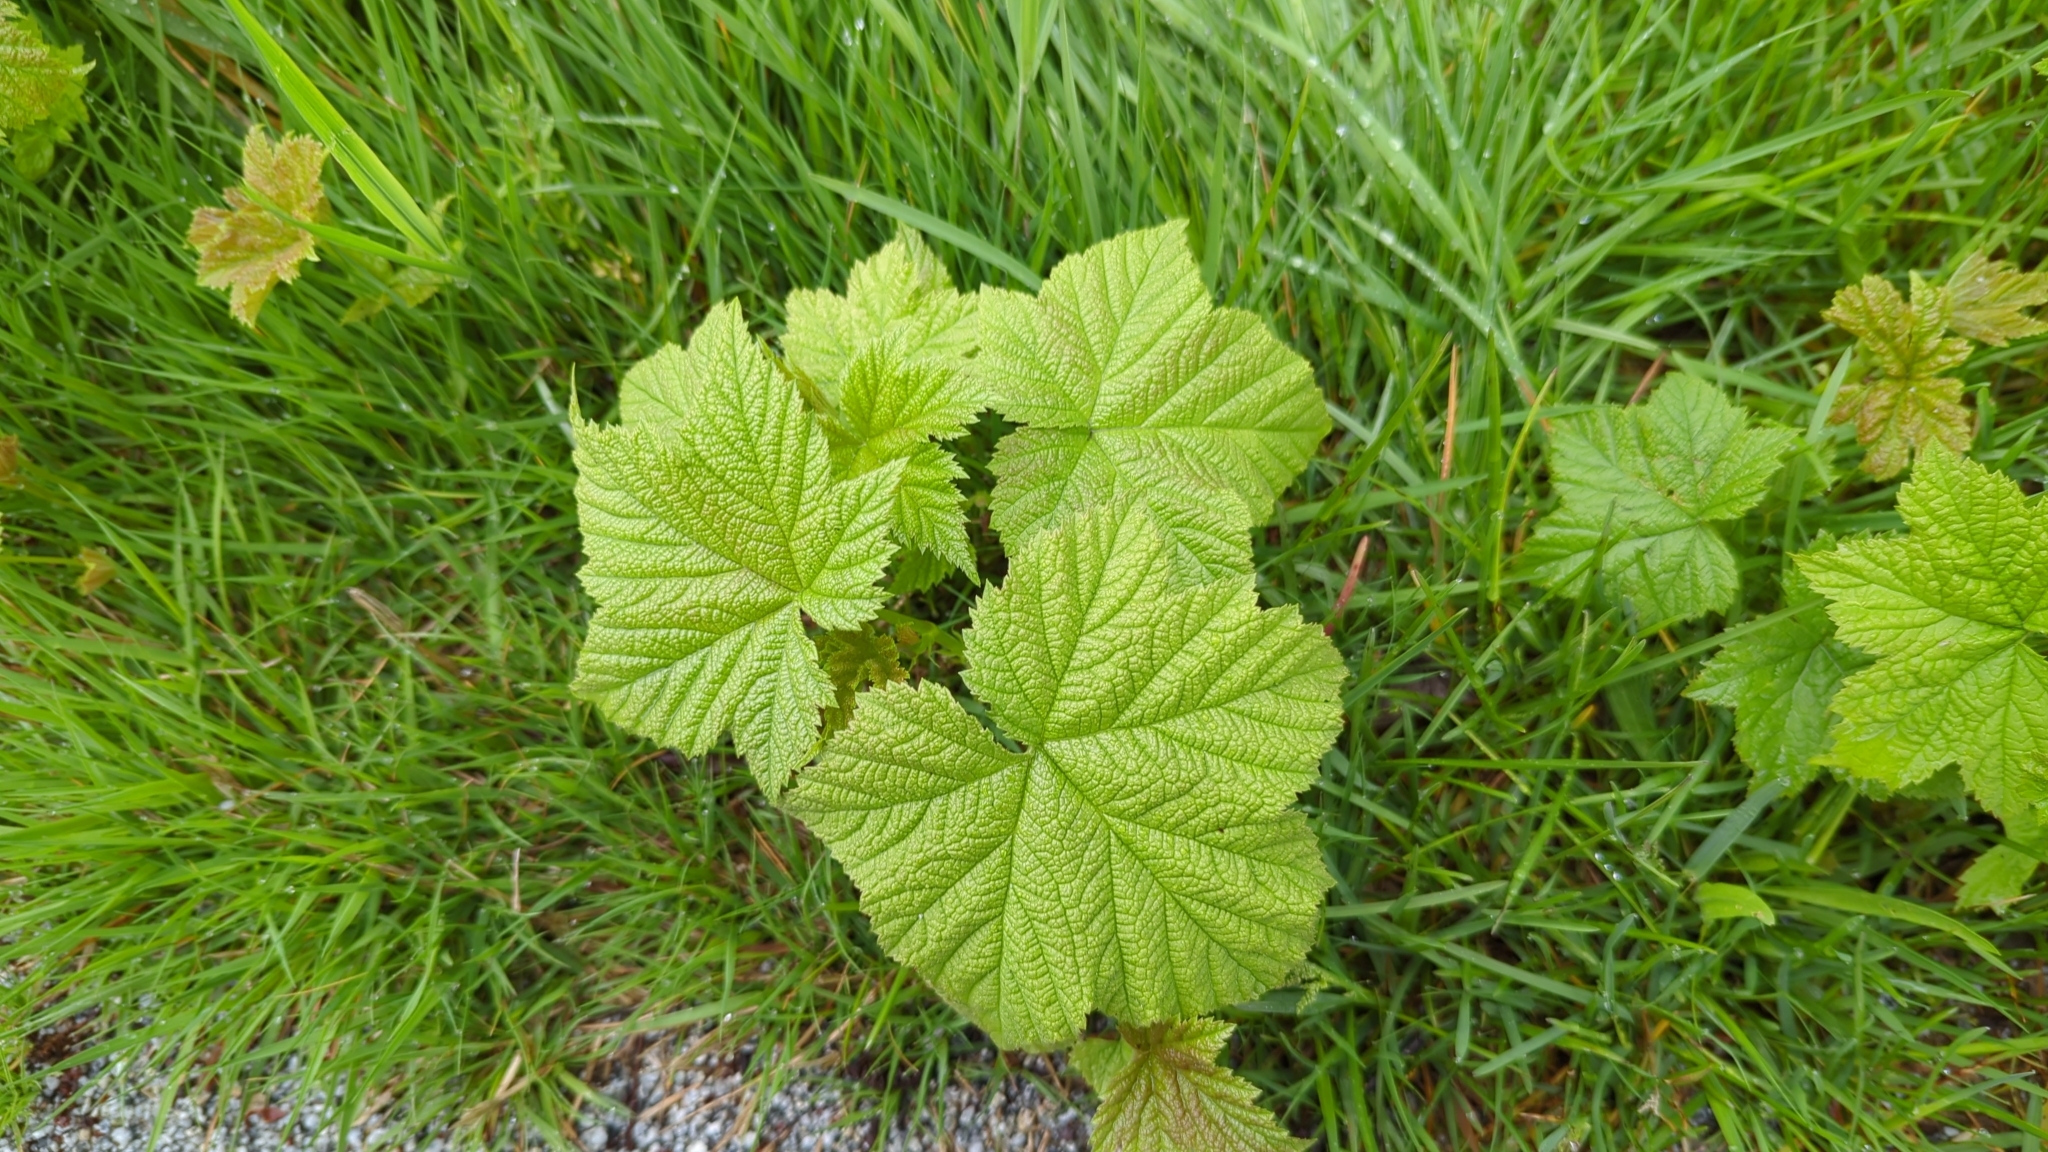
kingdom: Plantae
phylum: Tracheophyta
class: Magnoliopsida
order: Rosales
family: Rosaceae
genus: Rubus
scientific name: Rubus parviflorus
